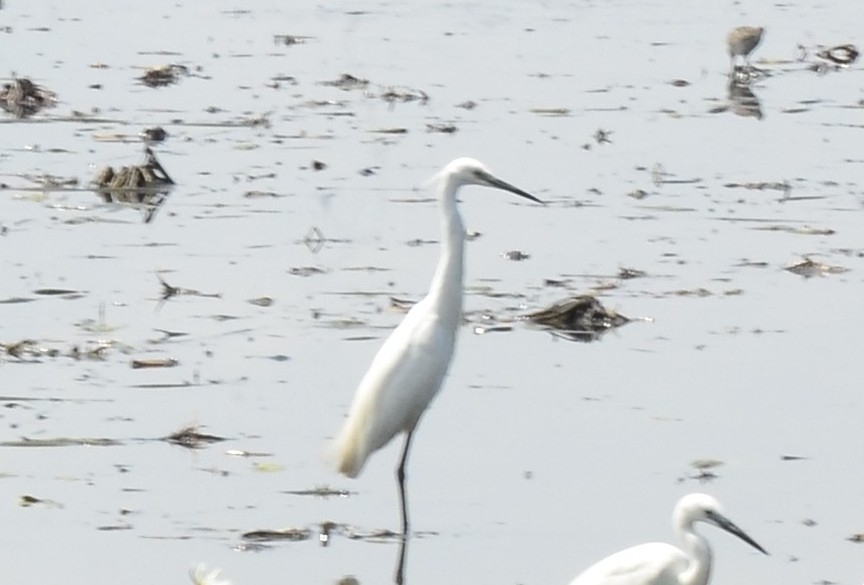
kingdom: Animalia
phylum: Chordata
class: Aves
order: Pelecaniformes
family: Ardeidae
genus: Egretta
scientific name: Egretta garzetta
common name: Little egret
